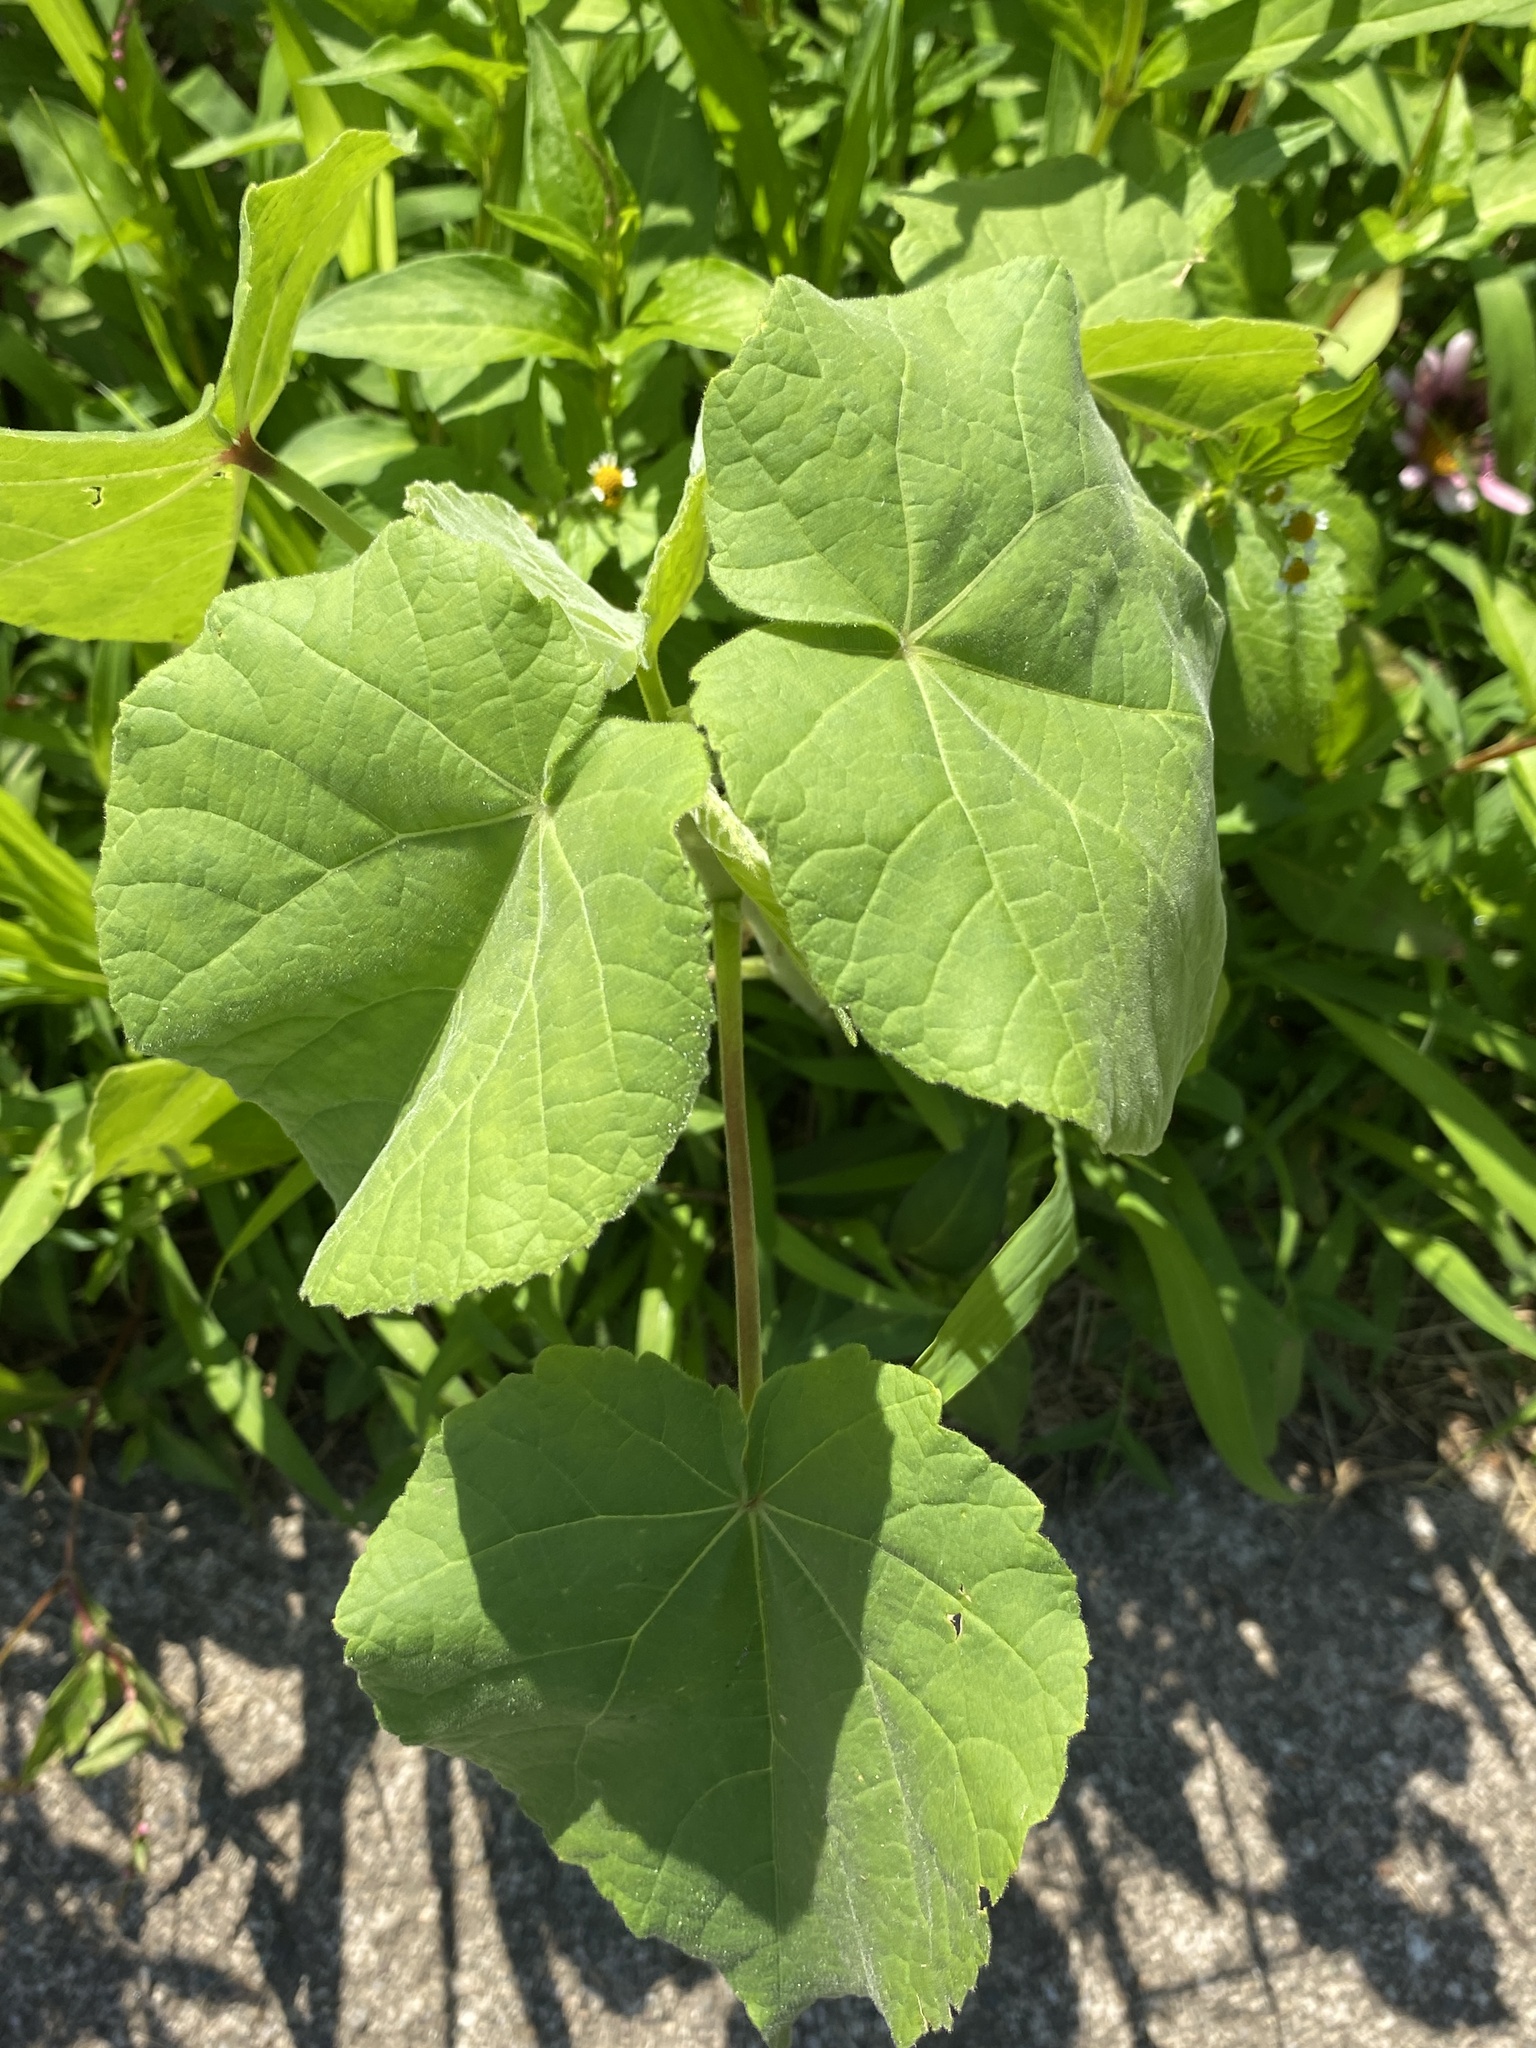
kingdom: Plantae
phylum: Tracheophyta
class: Magnoliopsida
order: Malvales
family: Malvaceae
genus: Abutilon
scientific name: Abutilon theophrasti
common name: Velvetleaf
